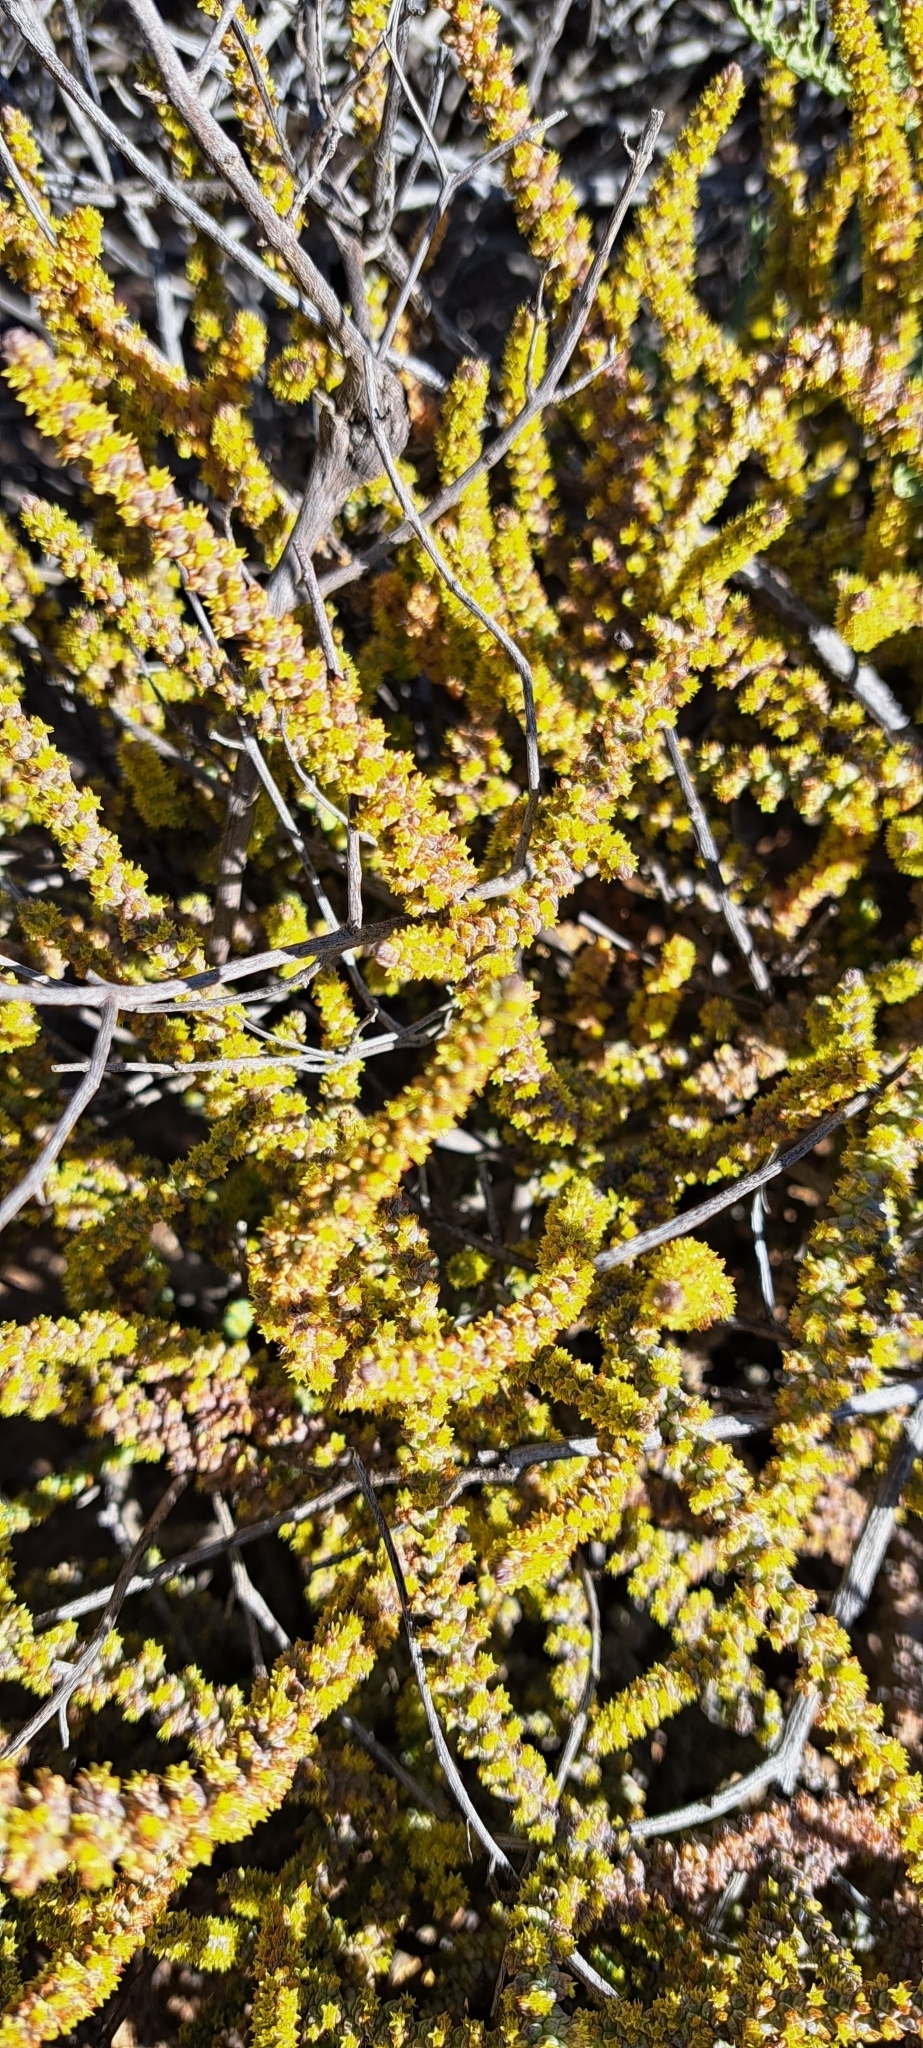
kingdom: Plantae
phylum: Tracheophyta
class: Magnoliopsida
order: Saxifragales
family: Crassulaceae
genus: Crassula
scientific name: Crassula muscosa
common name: Toy-cypress
